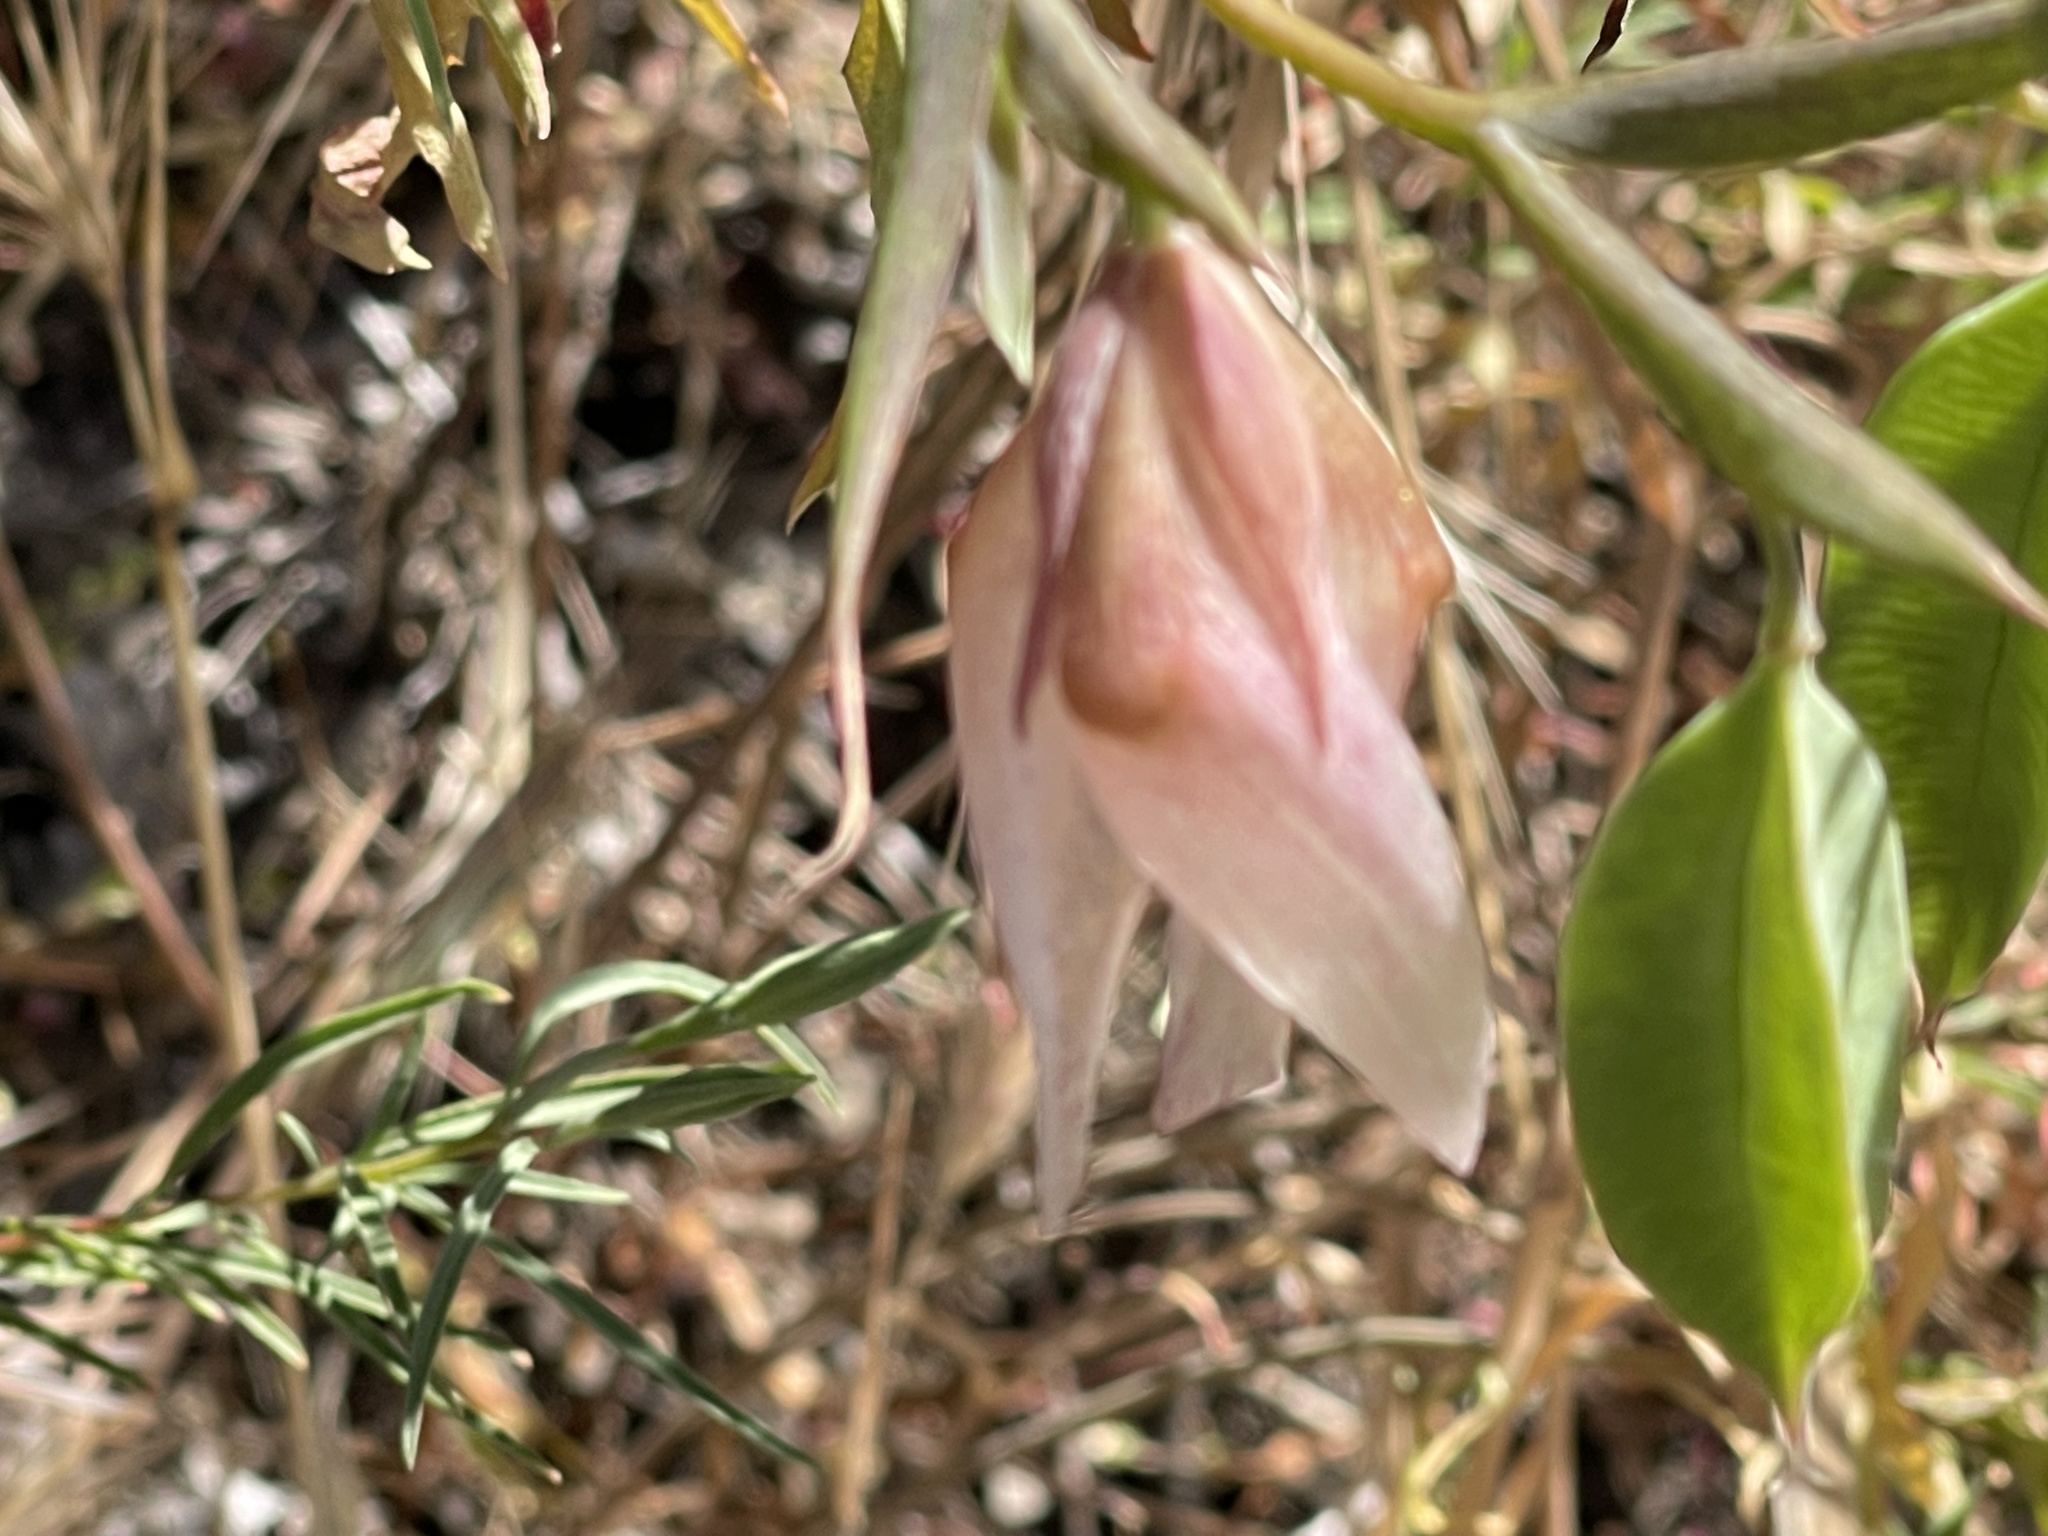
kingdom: Plantae
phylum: Tracheophyta
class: Liliopsida
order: Liliales
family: Liliaceae
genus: Calochortus
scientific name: Calochortus albus
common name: Fairy-lantern
